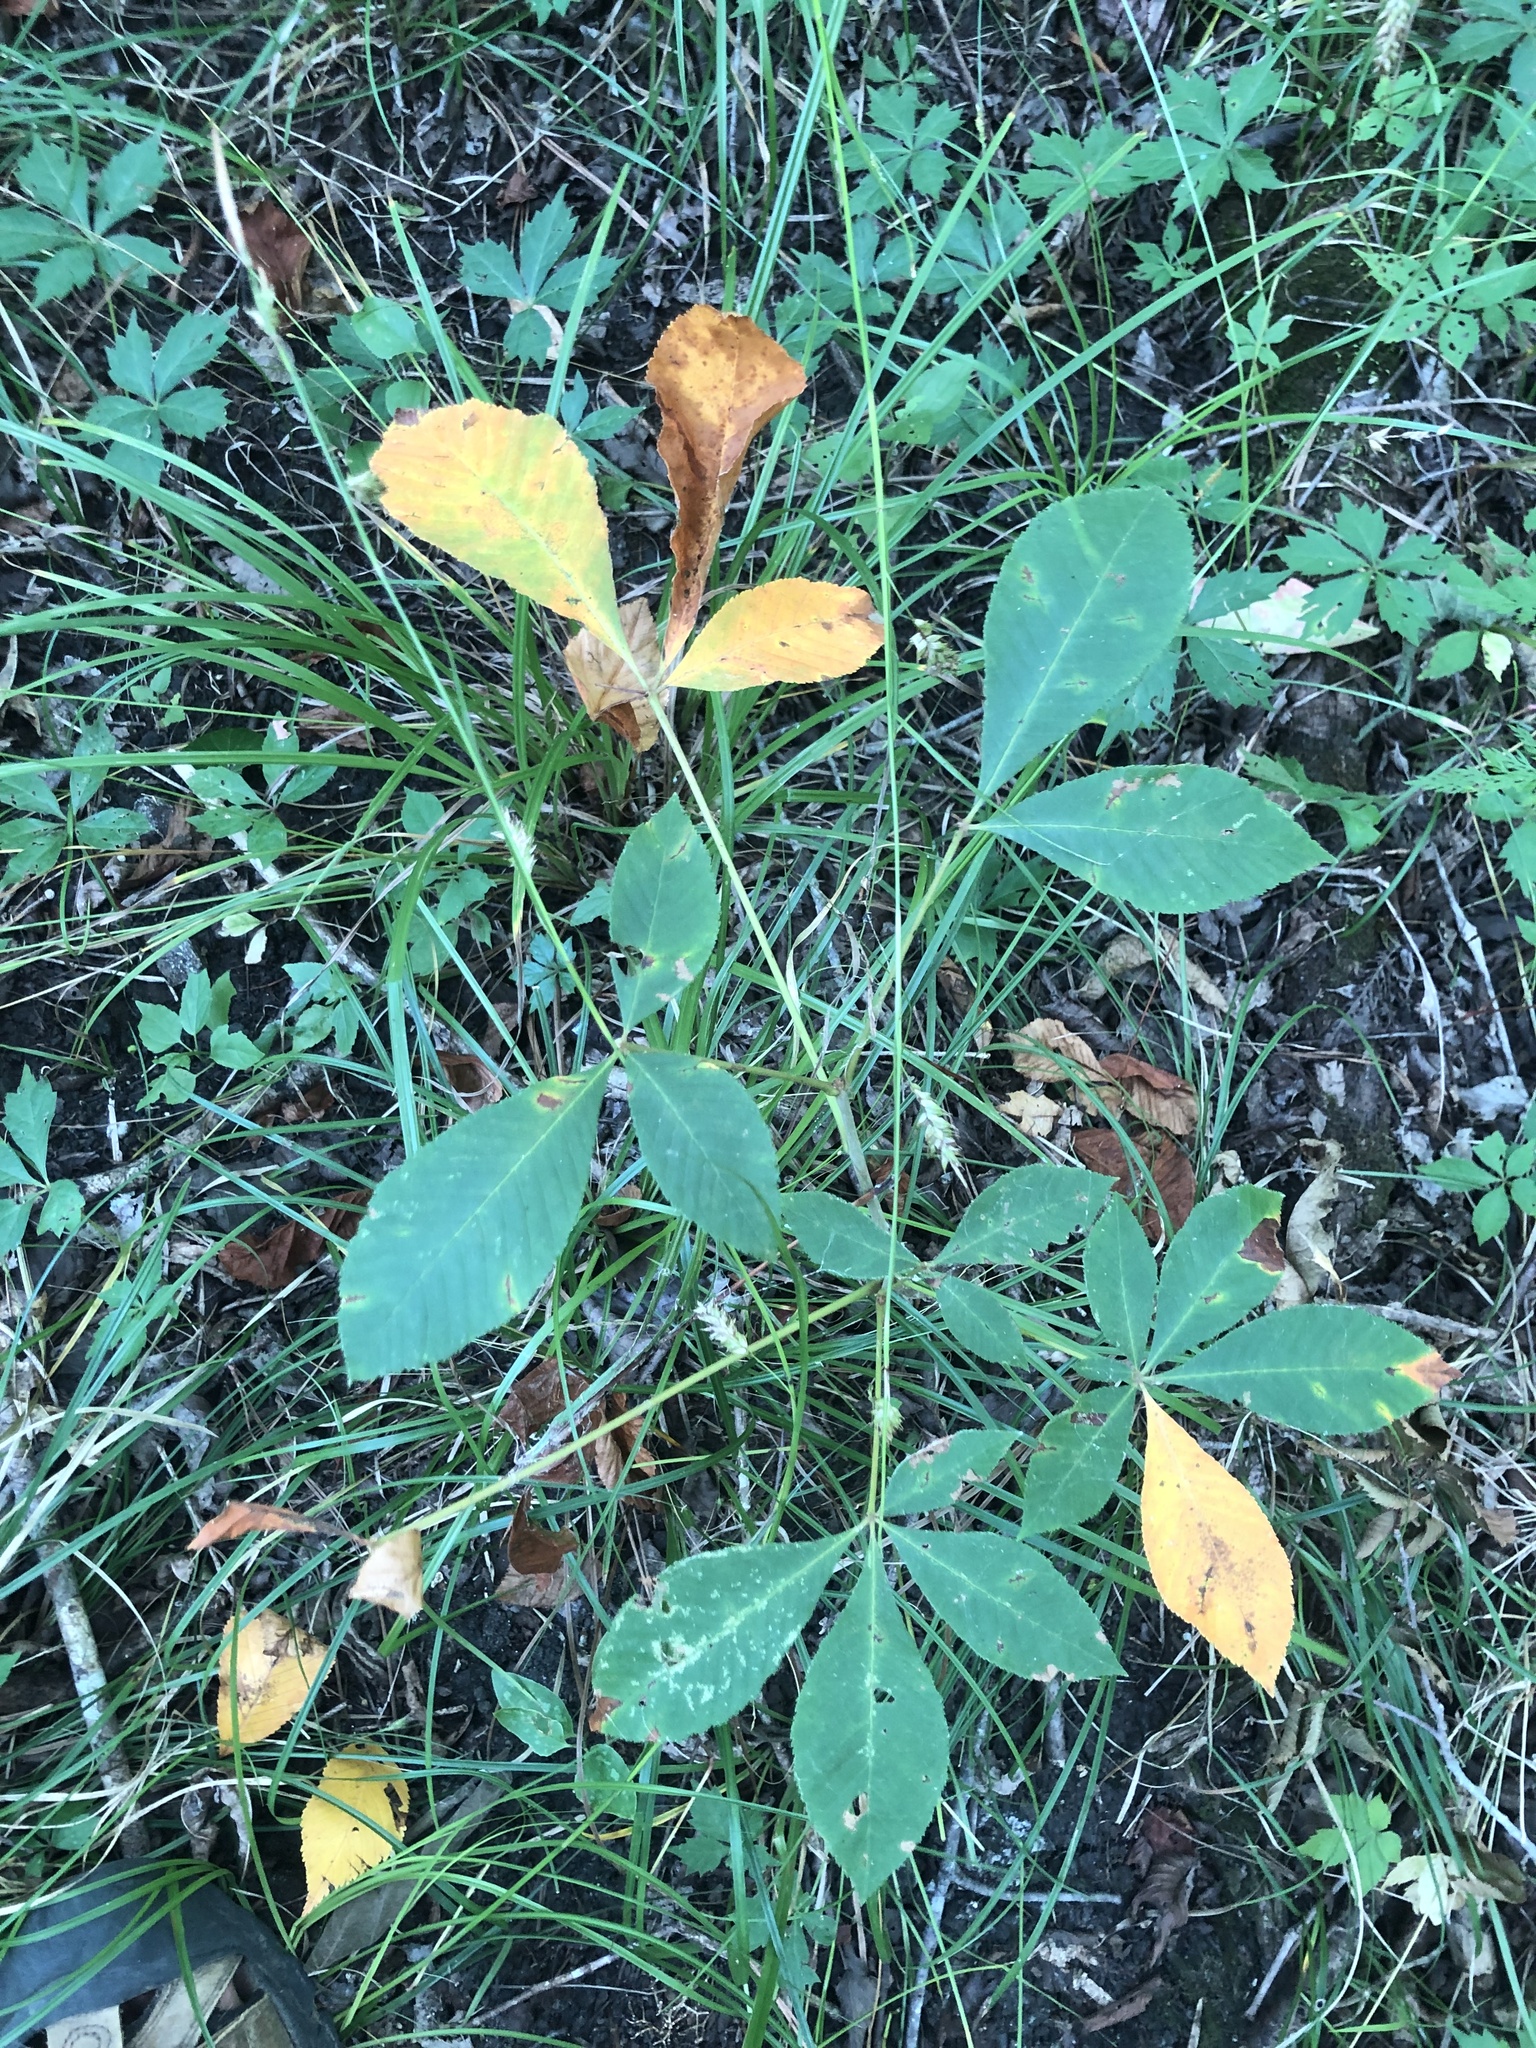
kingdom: Plantae
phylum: Tracheophyta
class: Magnoliopsida
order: Sapindales
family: Sapindaceae
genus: Aesculus
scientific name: Aesculus pavia
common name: Red buckeye
